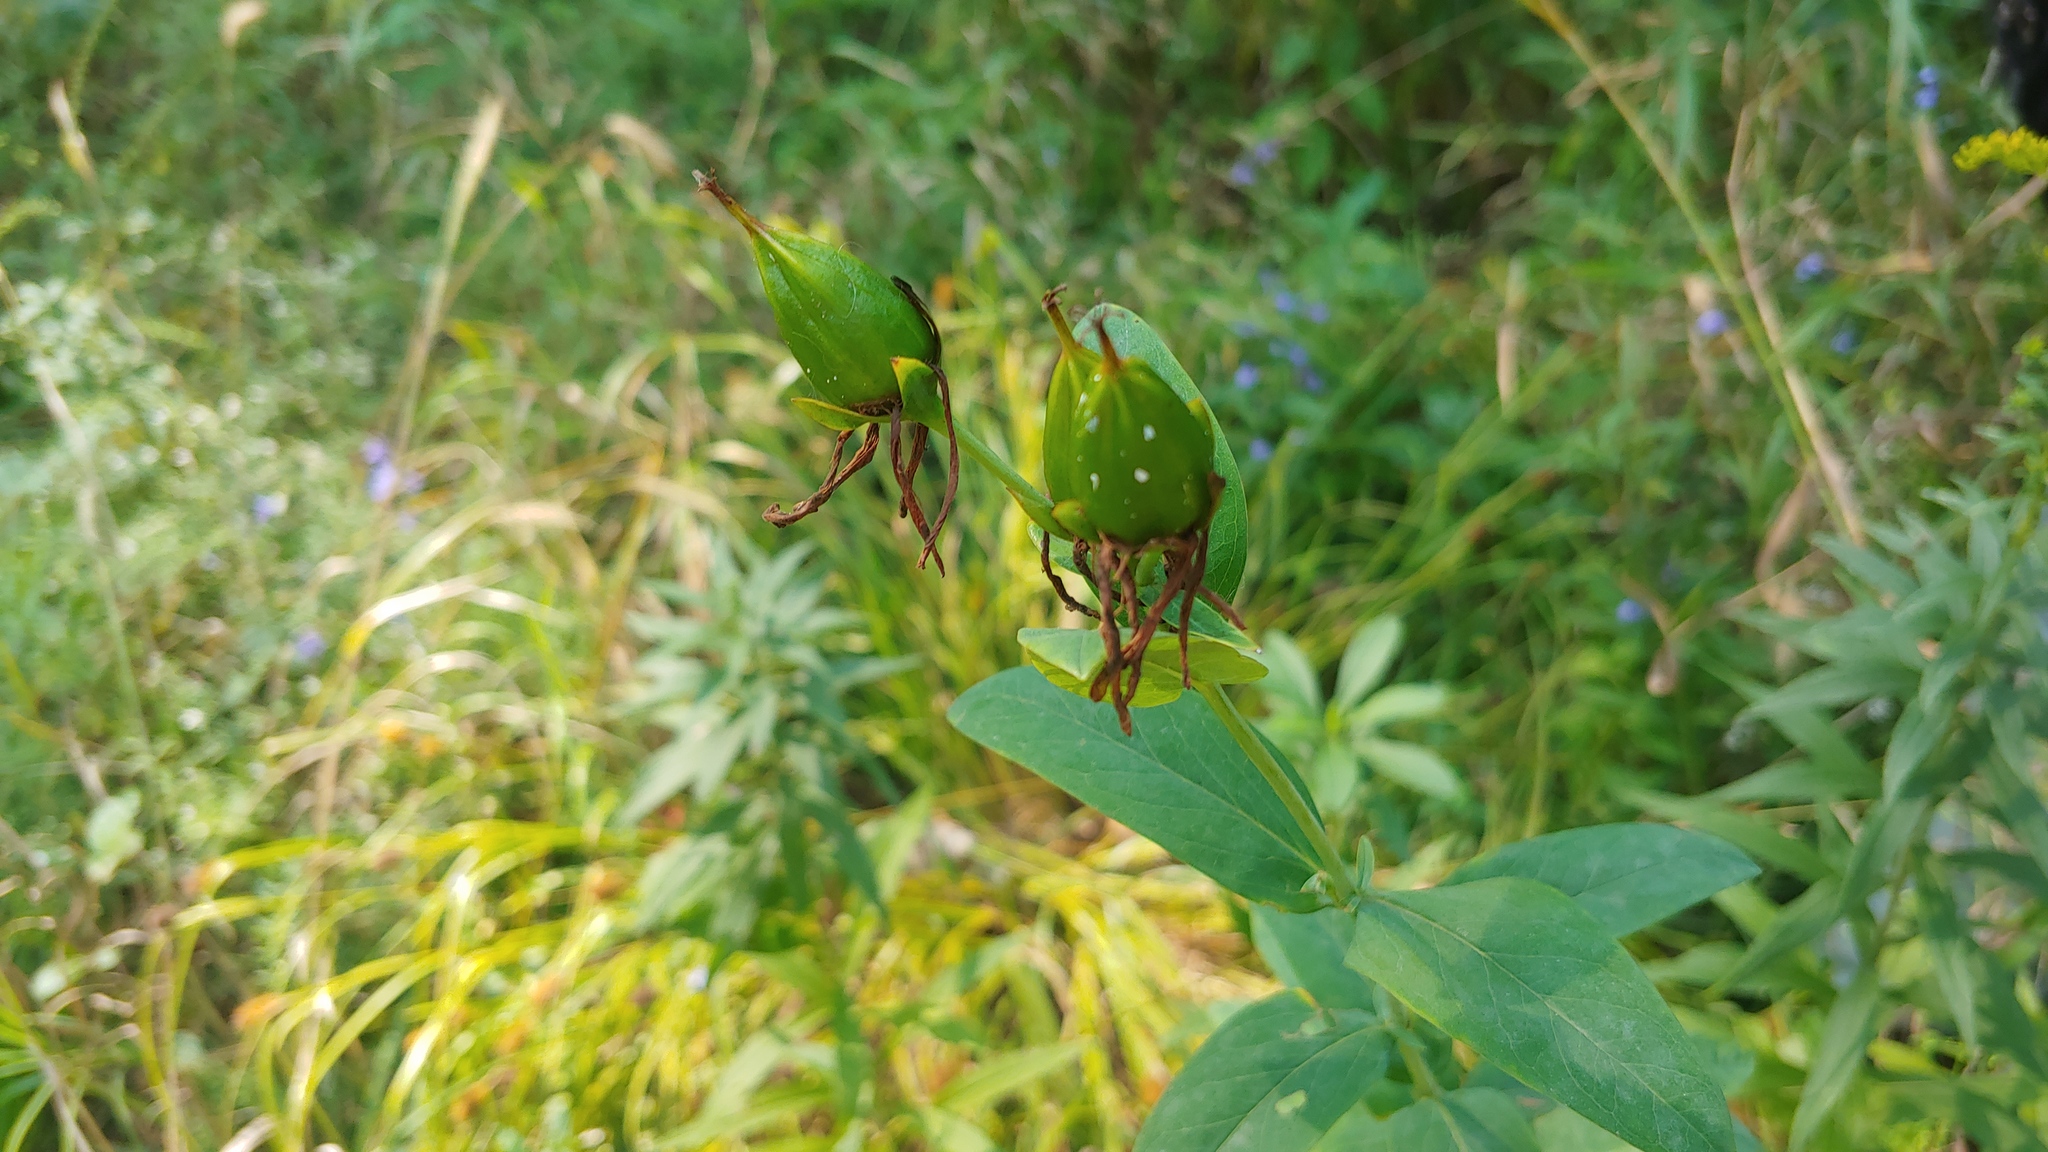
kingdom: Plantae
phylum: Tracheophyta
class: Magnoliopsida
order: Malpighiales
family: Hypericaceae
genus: Hypericum
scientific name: Hypericum ascyron
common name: Giant st. john's-wort
